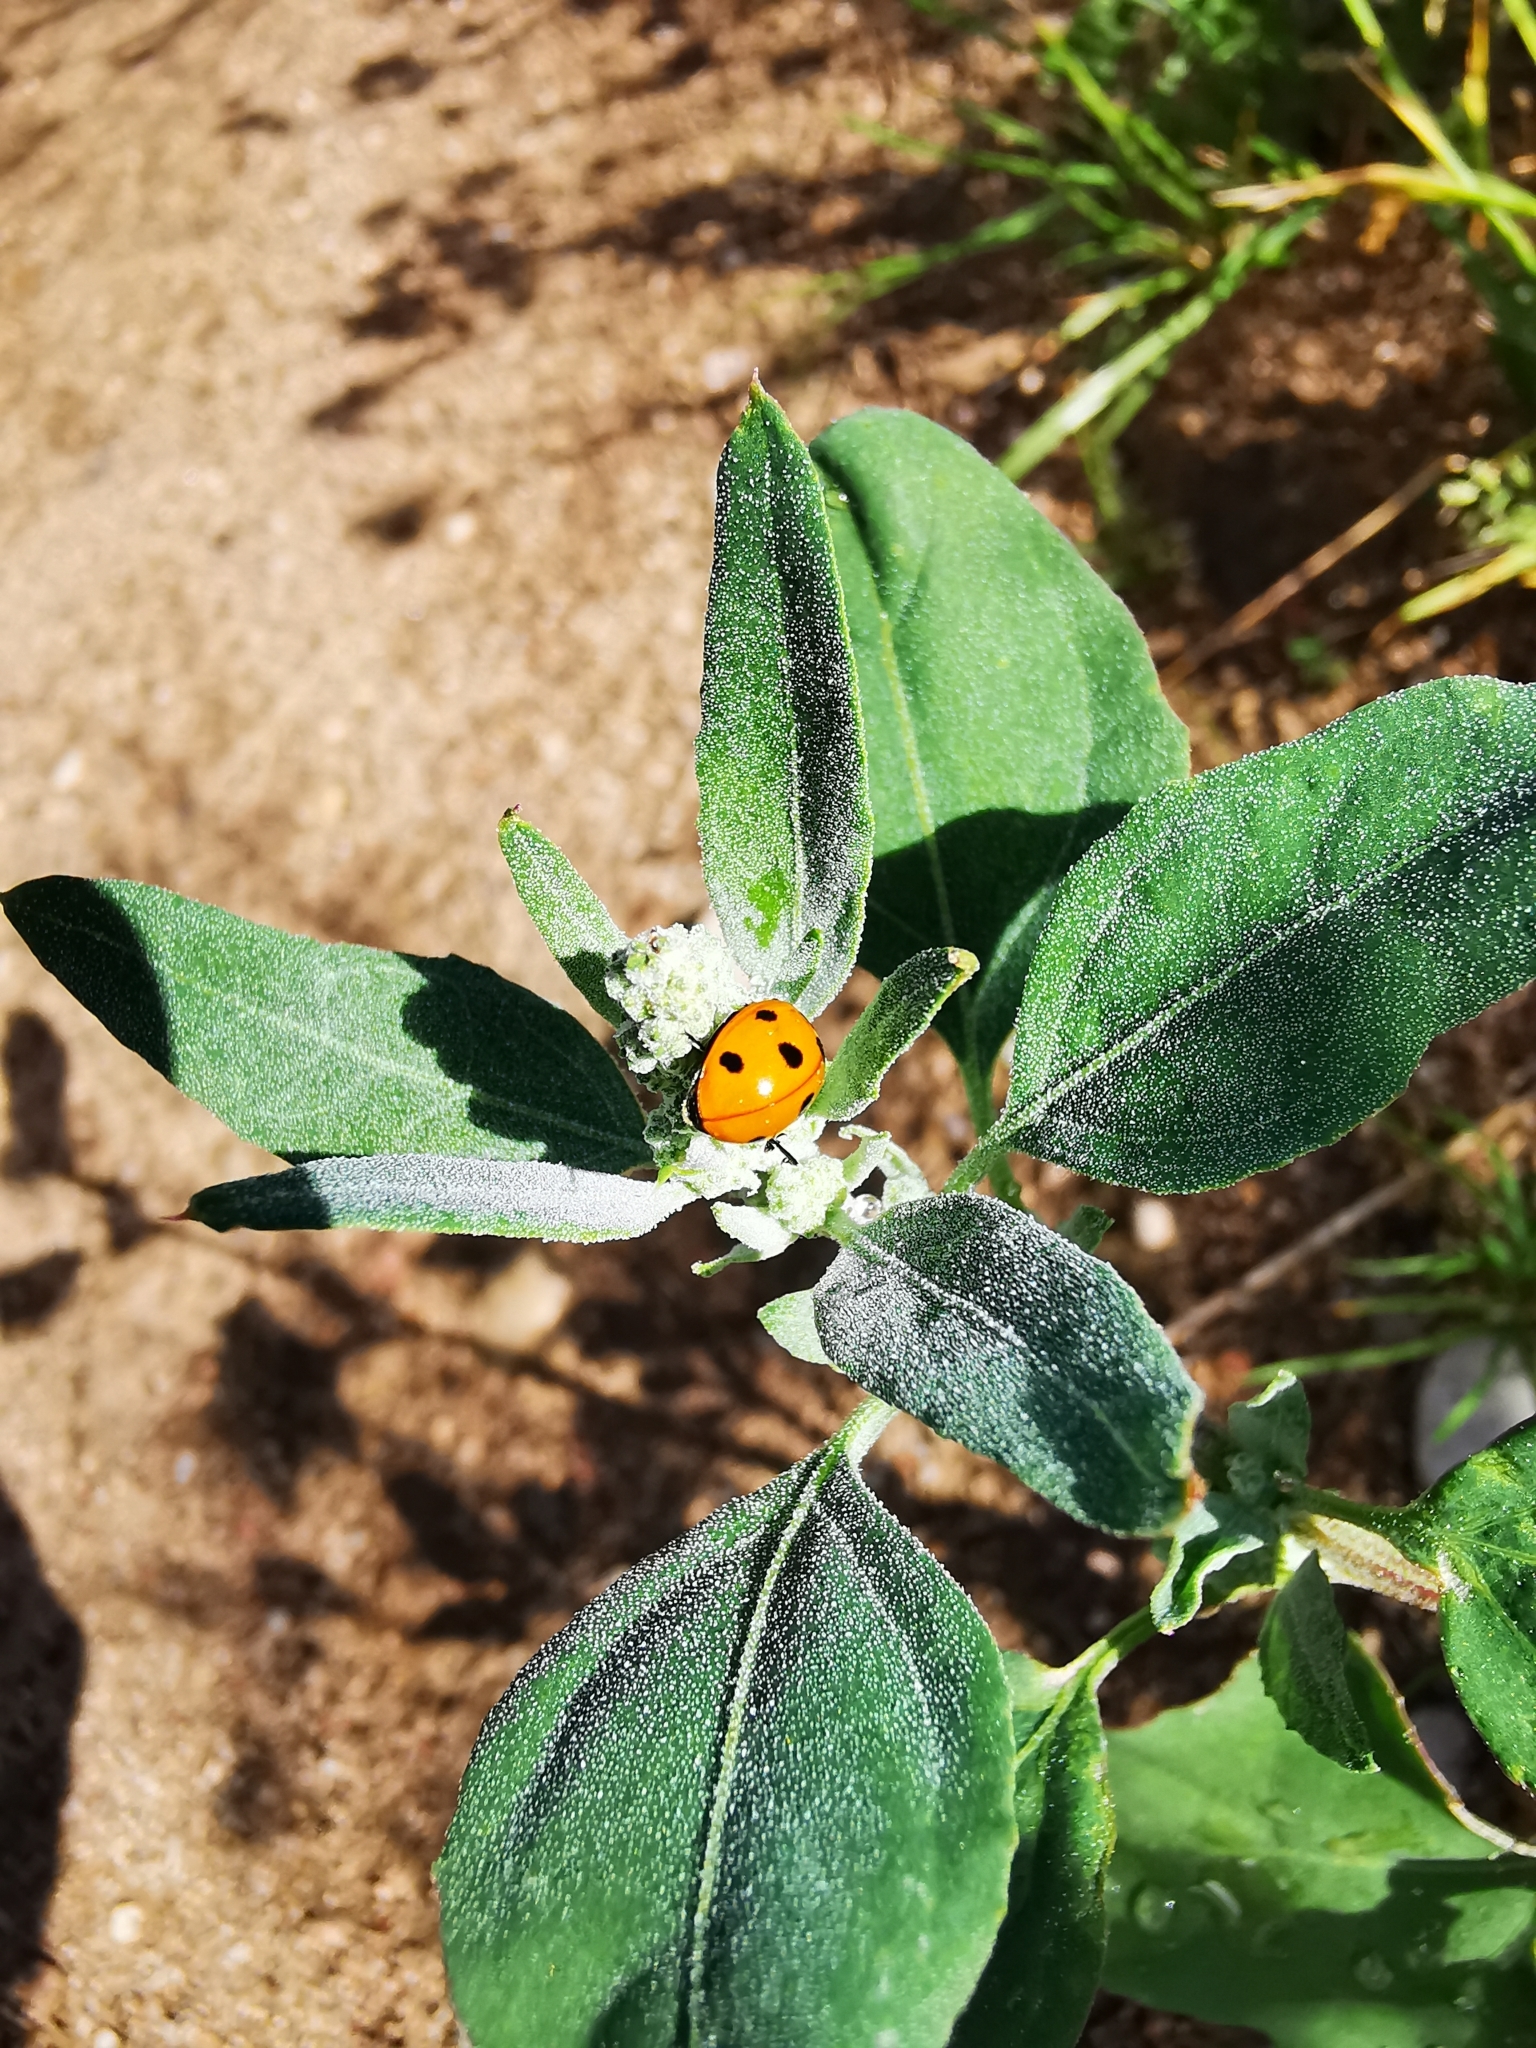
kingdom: Animalia
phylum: Arthropoda
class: Insecta
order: Coleoptera
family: Coccinellidae
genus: Coccinella
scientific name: Coccinella septempunctata
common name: Sevenspotted lady beetle
